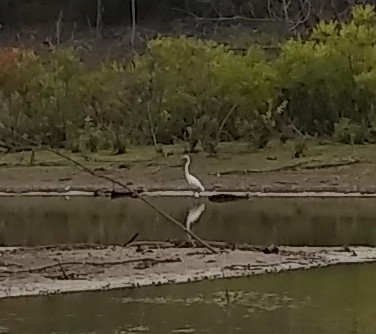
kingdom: Animalia
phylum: Chordata
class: Aves
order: Pelecaniformes
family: Ardeidae
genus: Ardea
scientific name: Ardea alba
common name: Great egret
